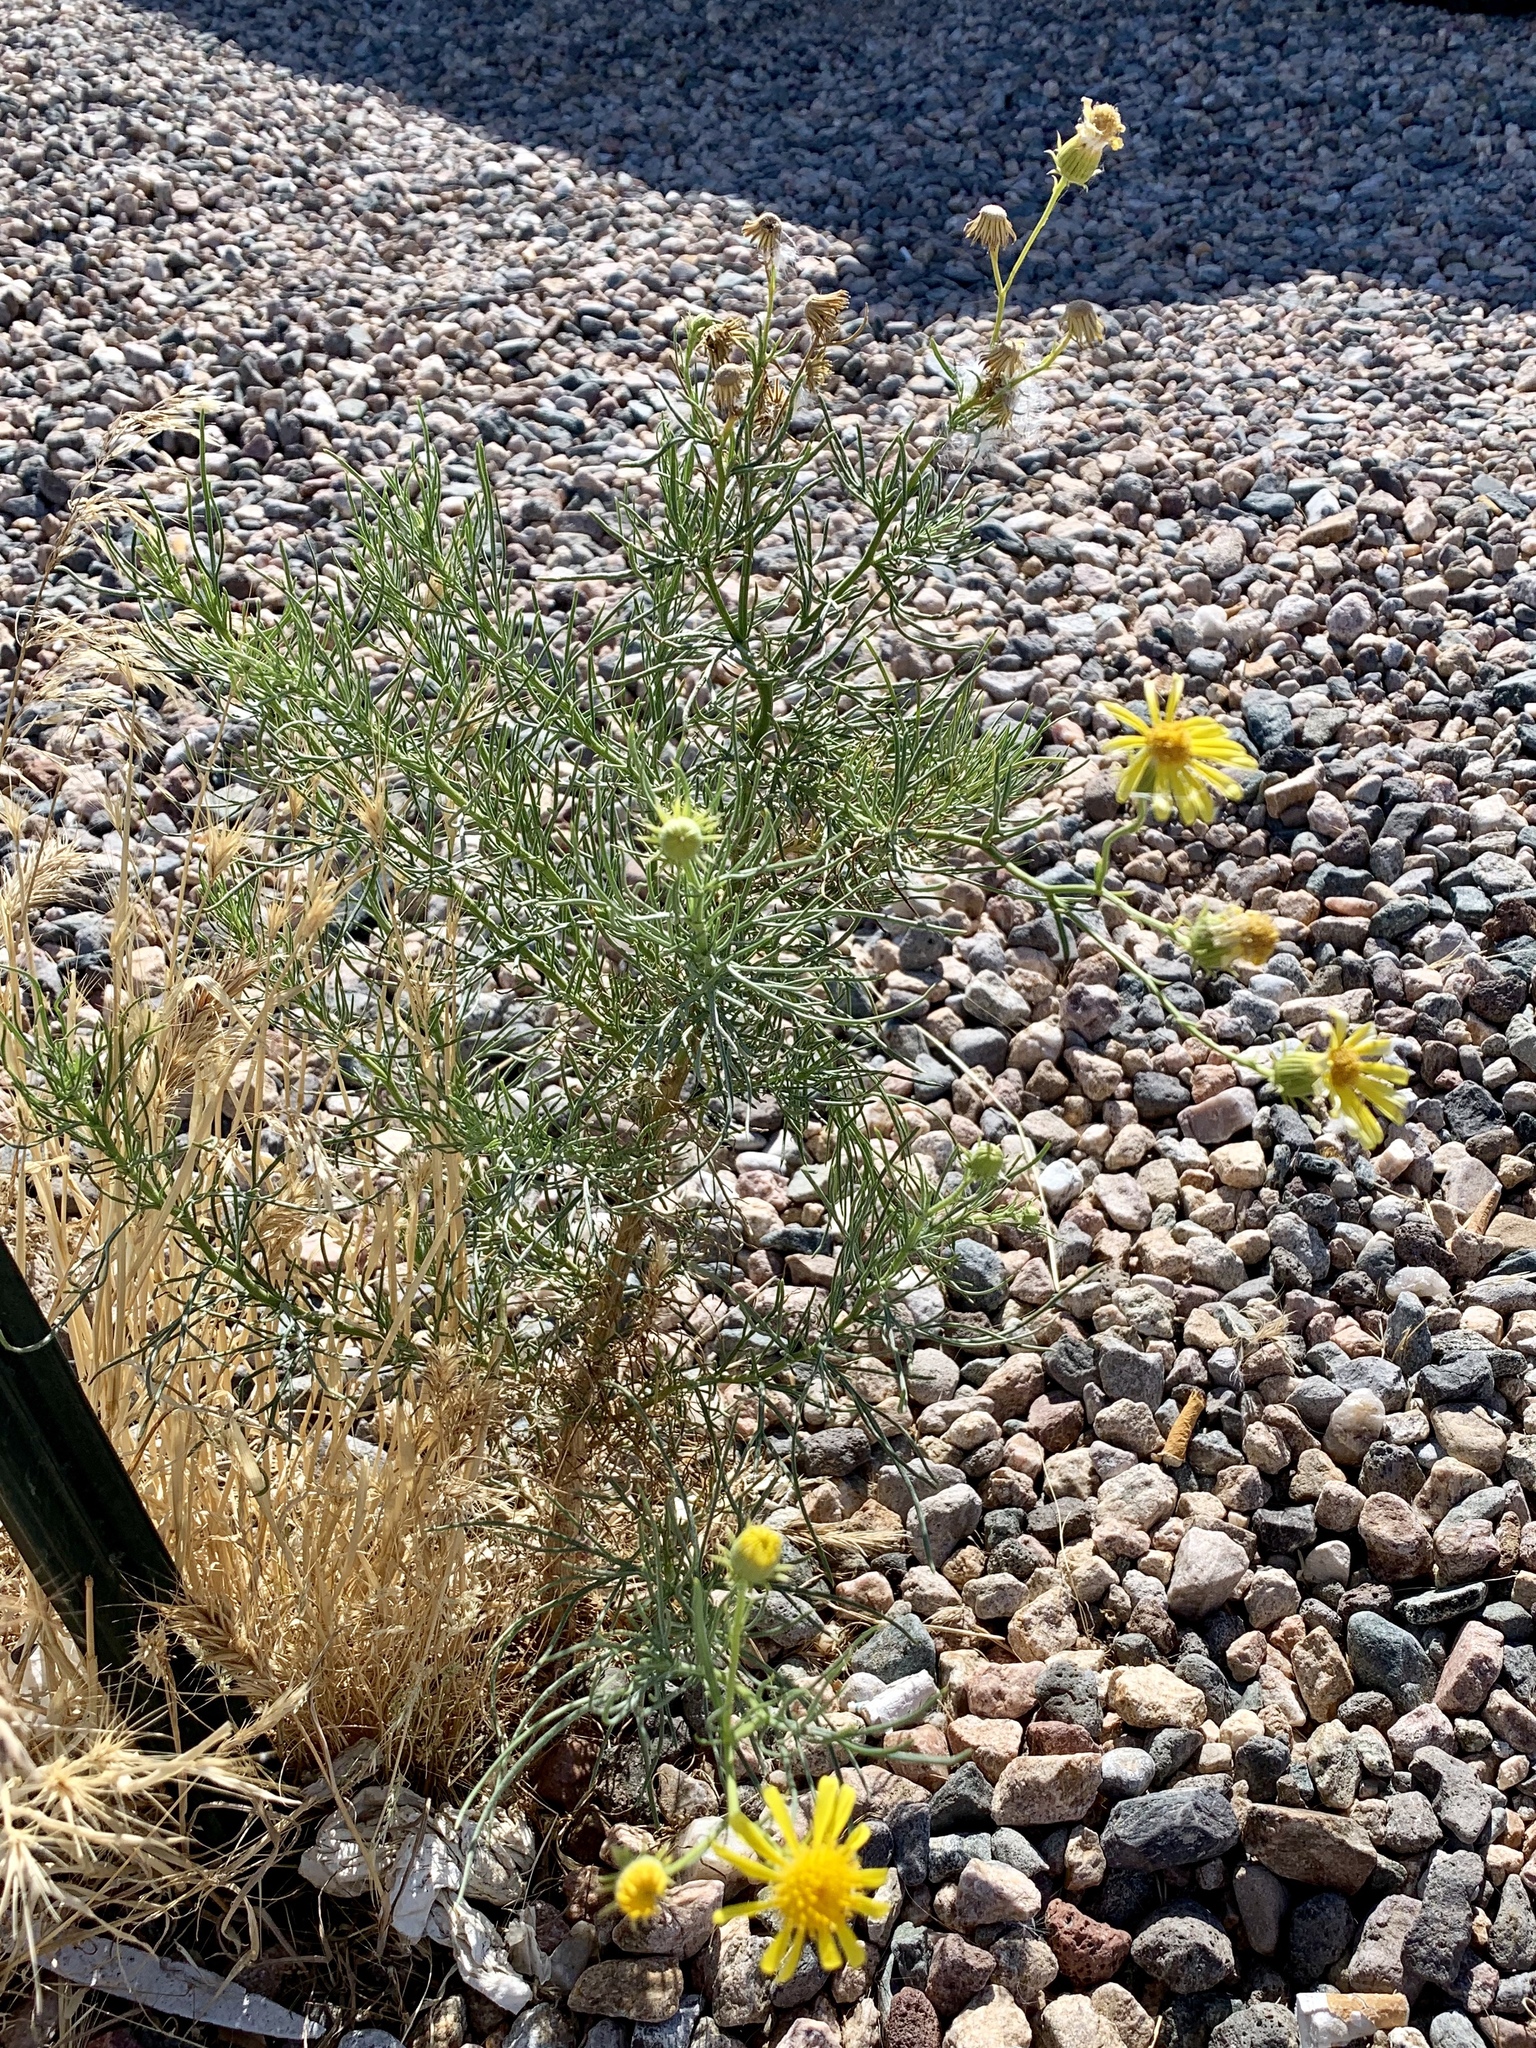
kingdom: Plantae
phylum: Tracheophyta
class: Magnoliopsida
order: Asterales
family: Asteraceae
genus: Senecio
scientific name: Senecio flaccidus
